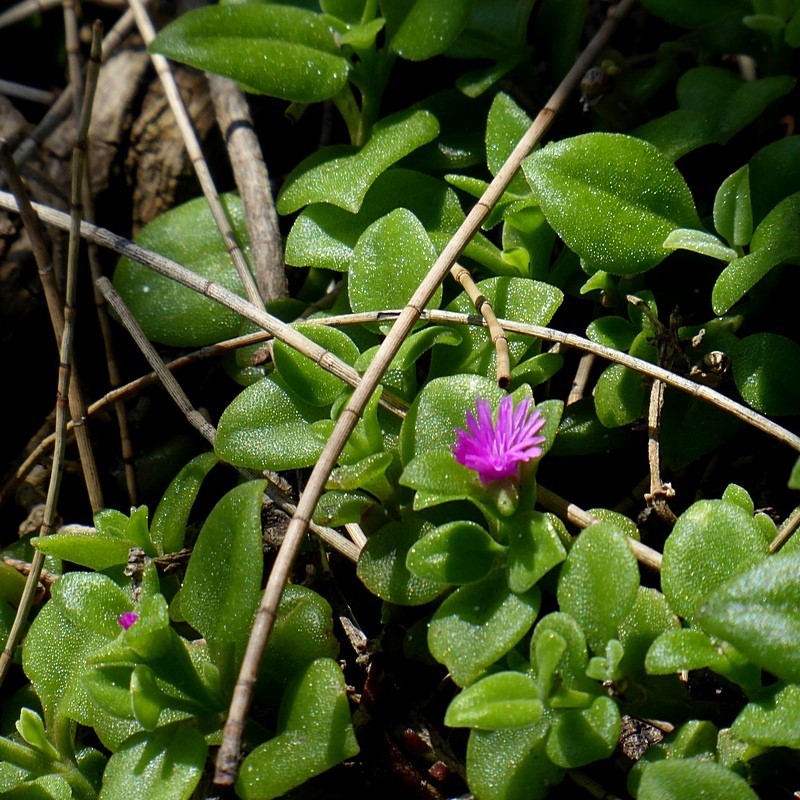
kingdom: Plantae
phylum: Tracheophyta
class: Magnoliopsida
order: Caryophyllales
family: Aizoaceae
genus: Mesembryanthemum
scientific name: Mesembryanthemum cordifolium
